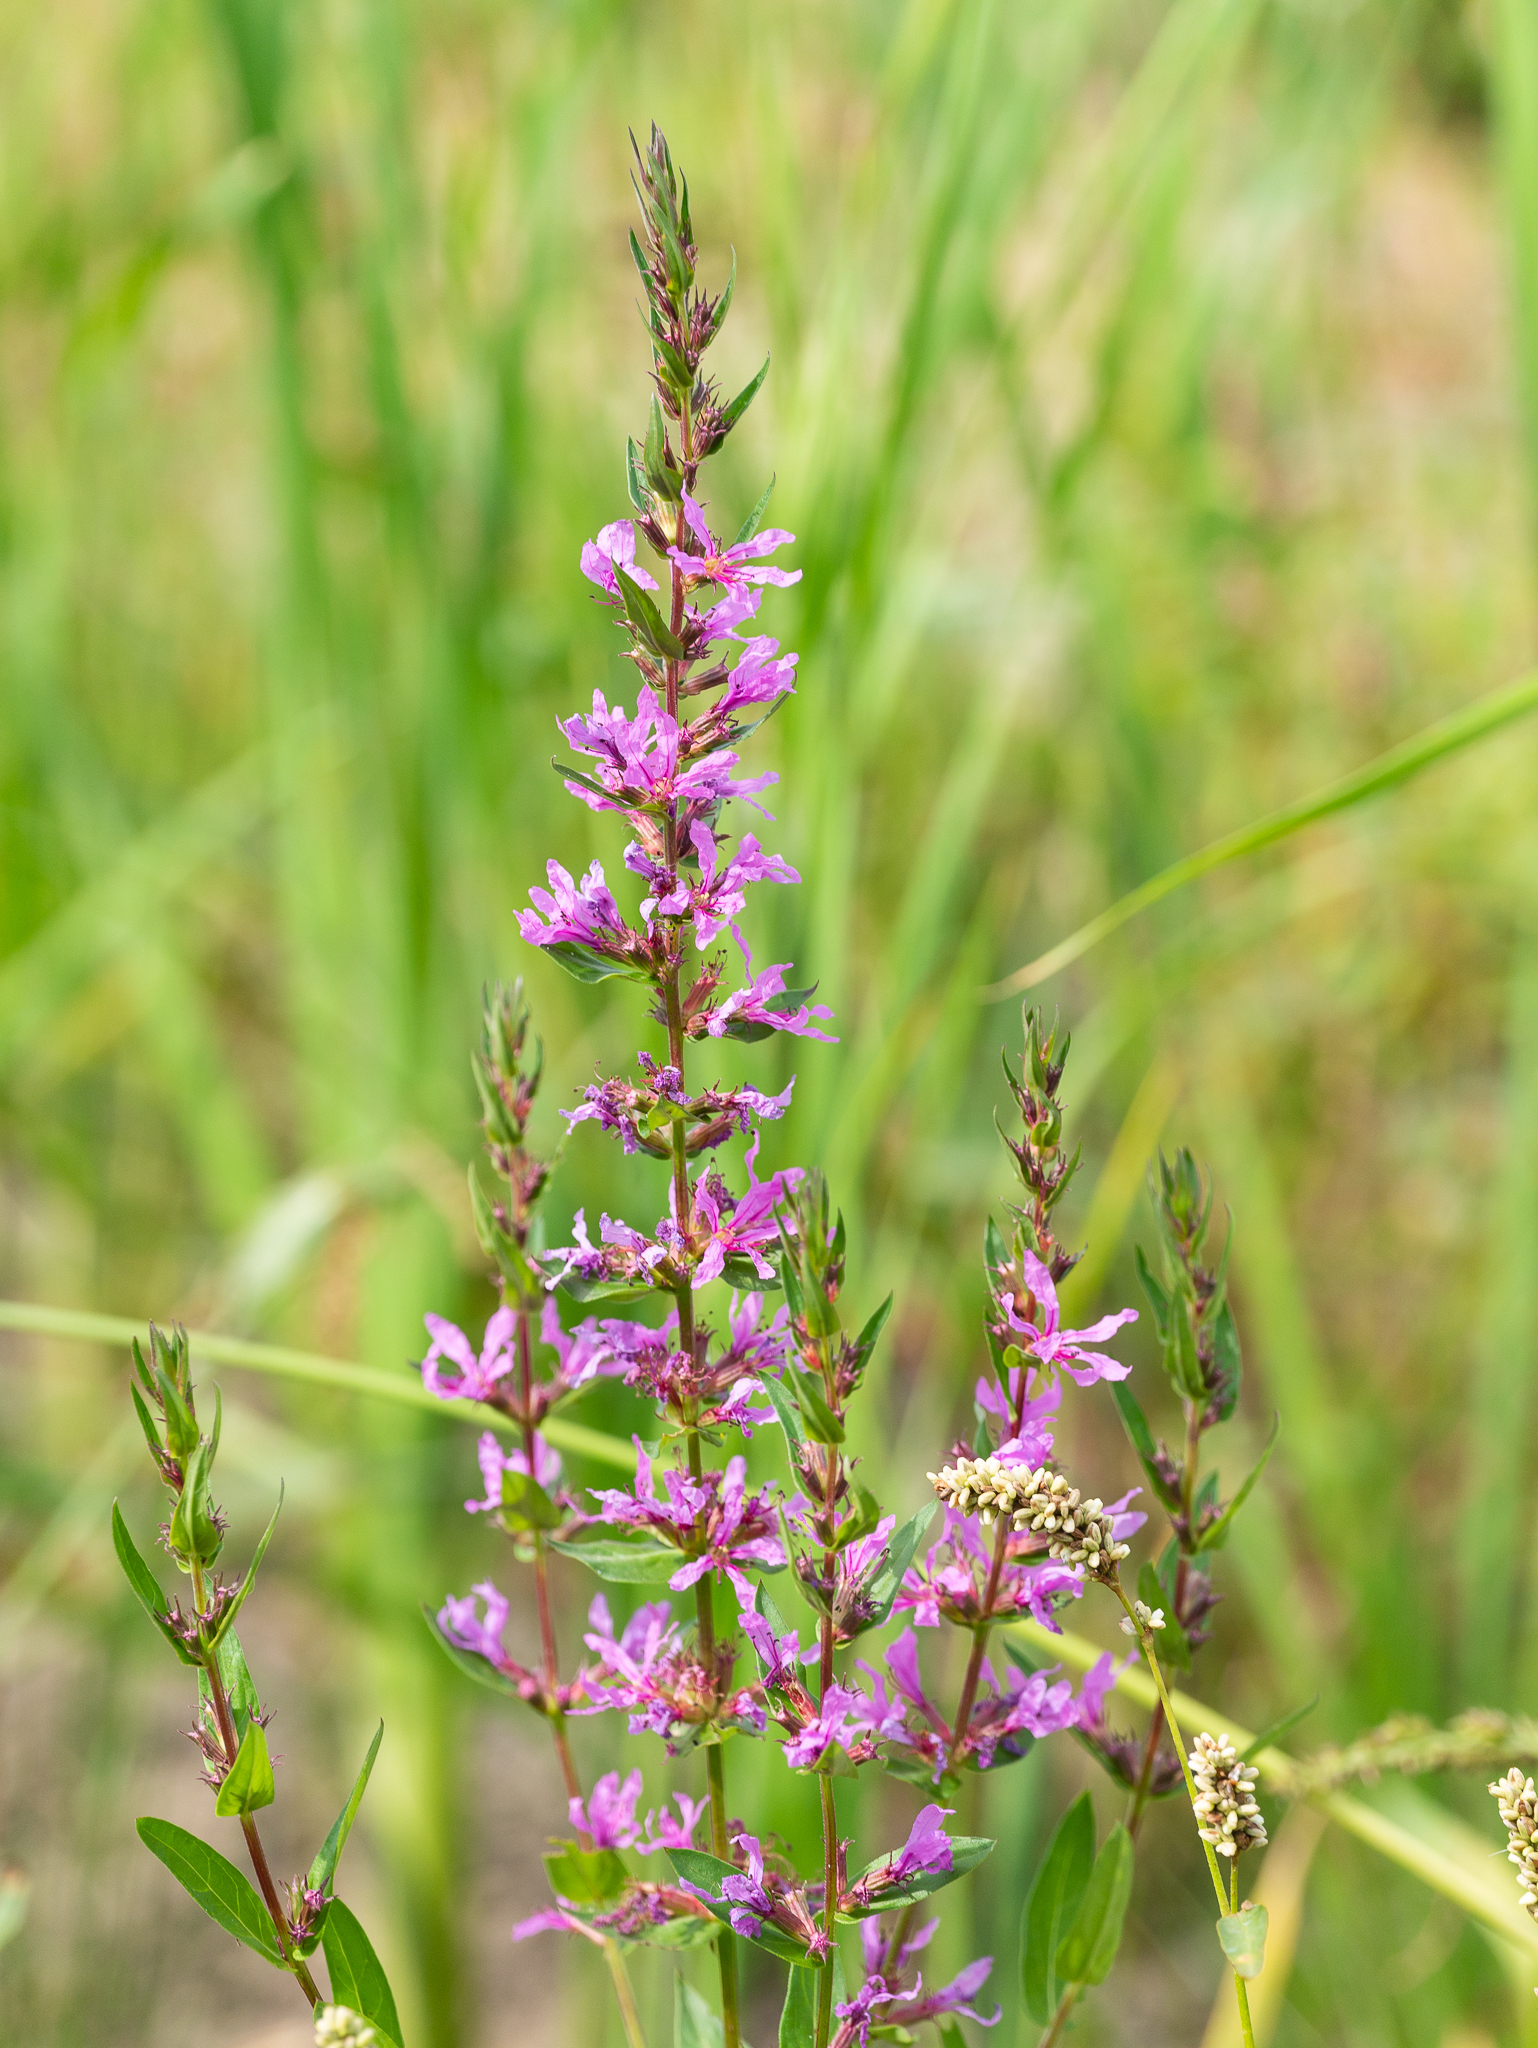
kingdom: Plantae
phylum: Tracheophyta
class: Magnoliopsida
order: Myrtales
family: Lythraceae
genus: Lythrum
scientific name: Lythrum salicaria
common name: Purple loosestrife
